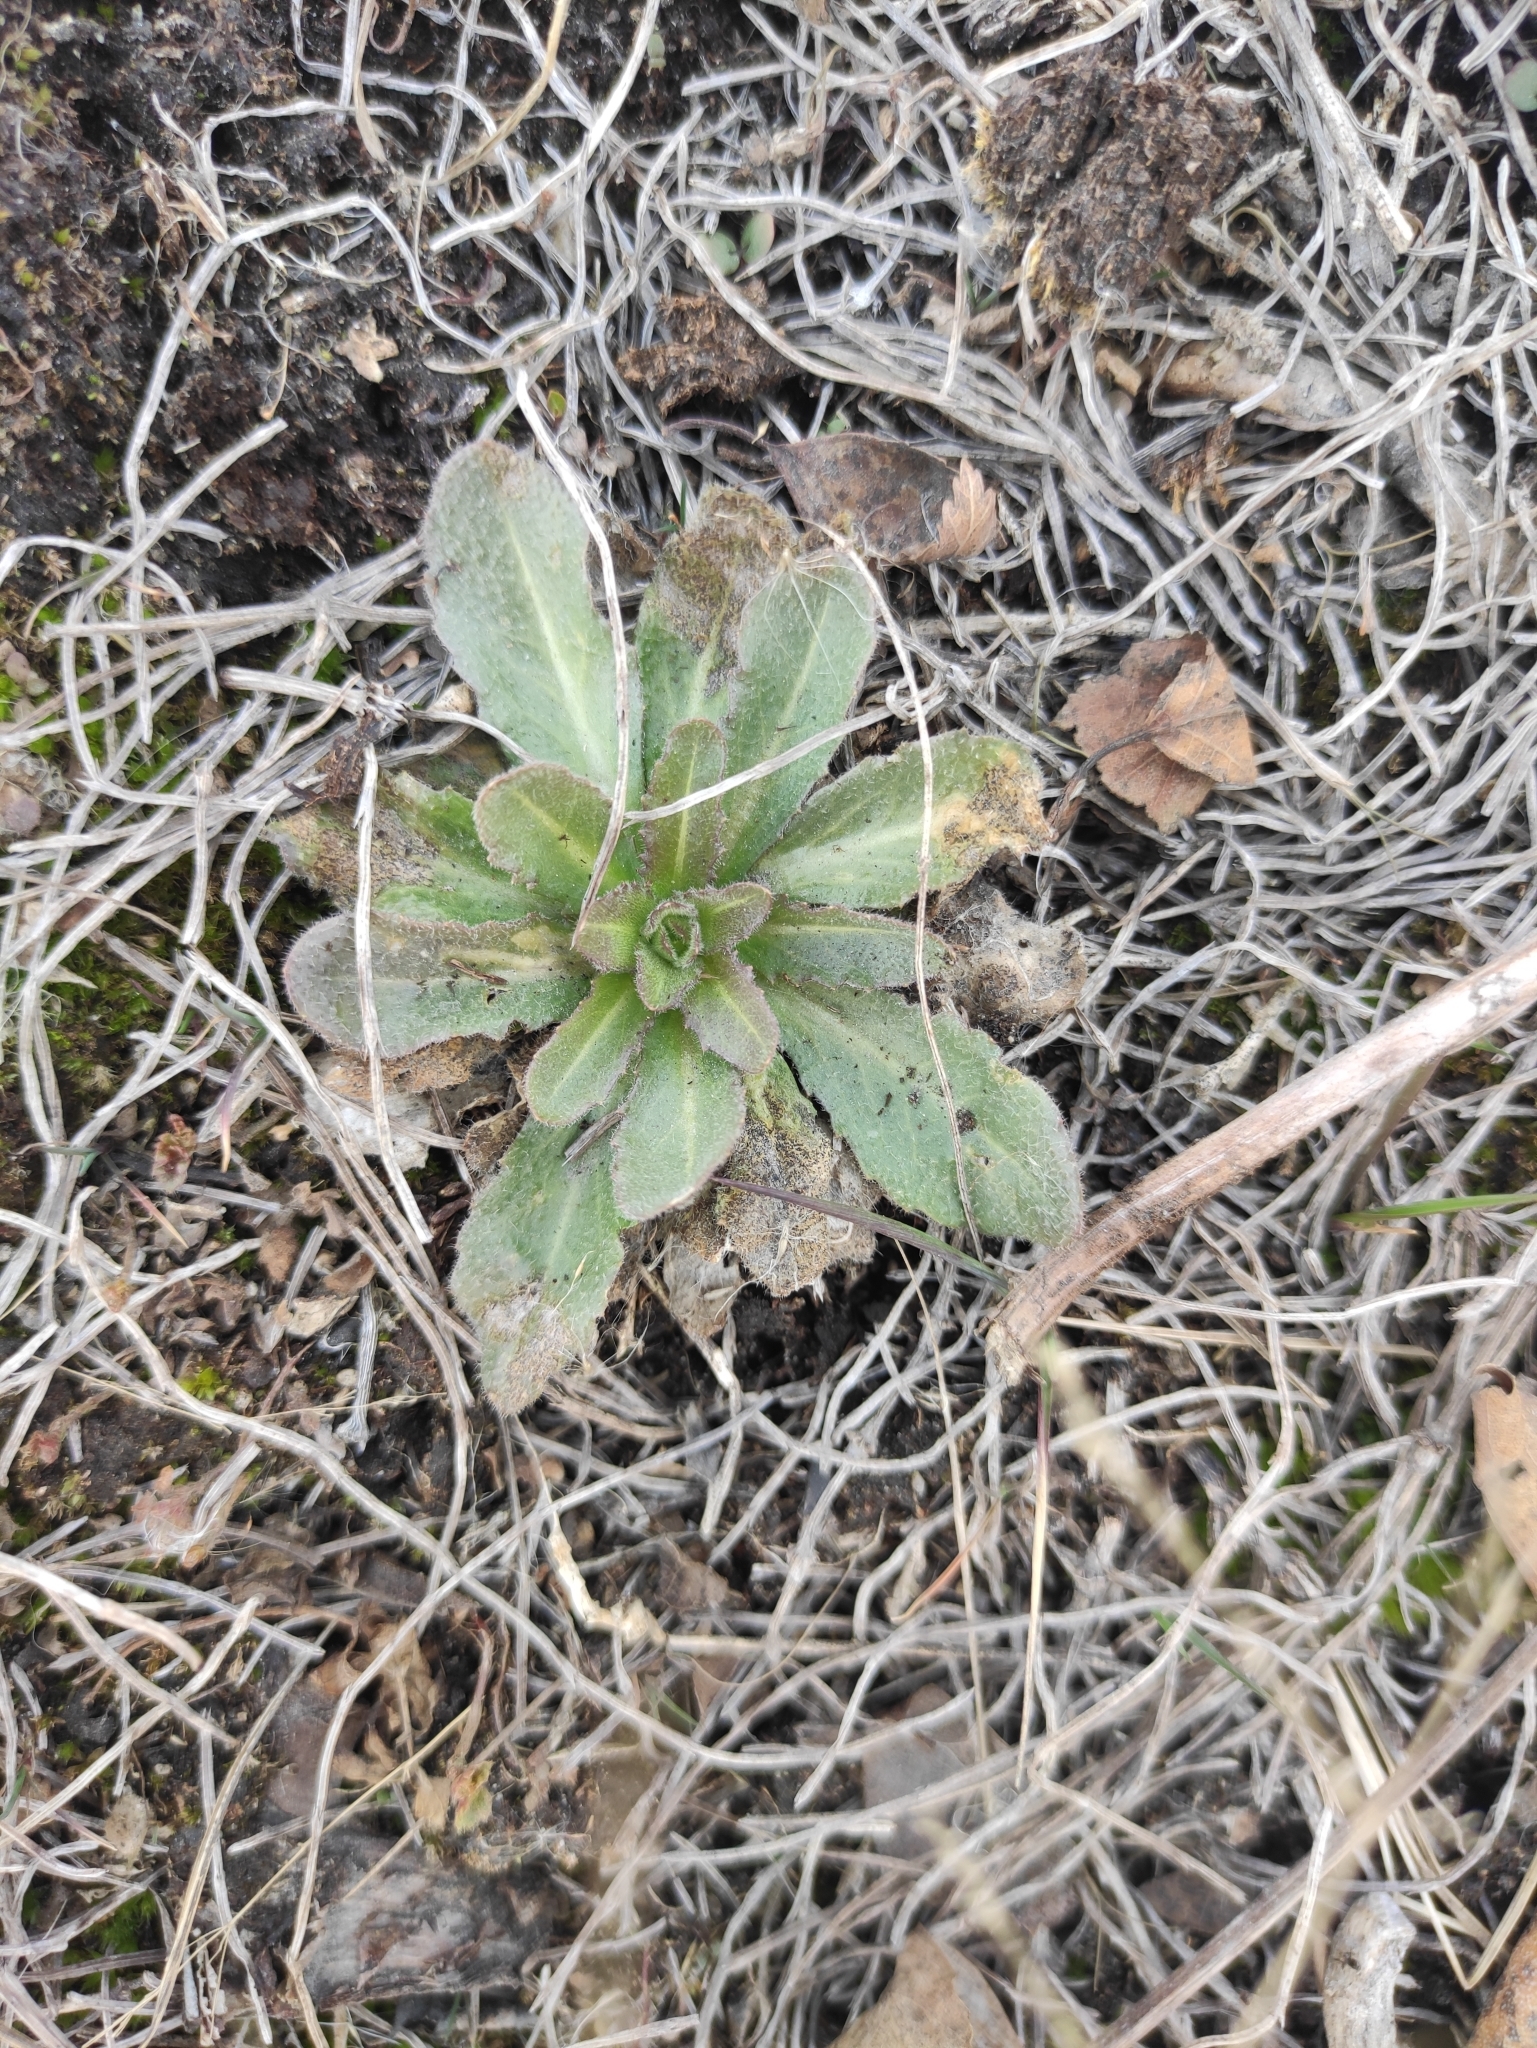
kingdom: Plantae
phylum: Tracheophyta
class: Magnoliopsida
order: Brassicales
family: Brassicaceae
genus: Arabis
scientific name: Arabis borealis
